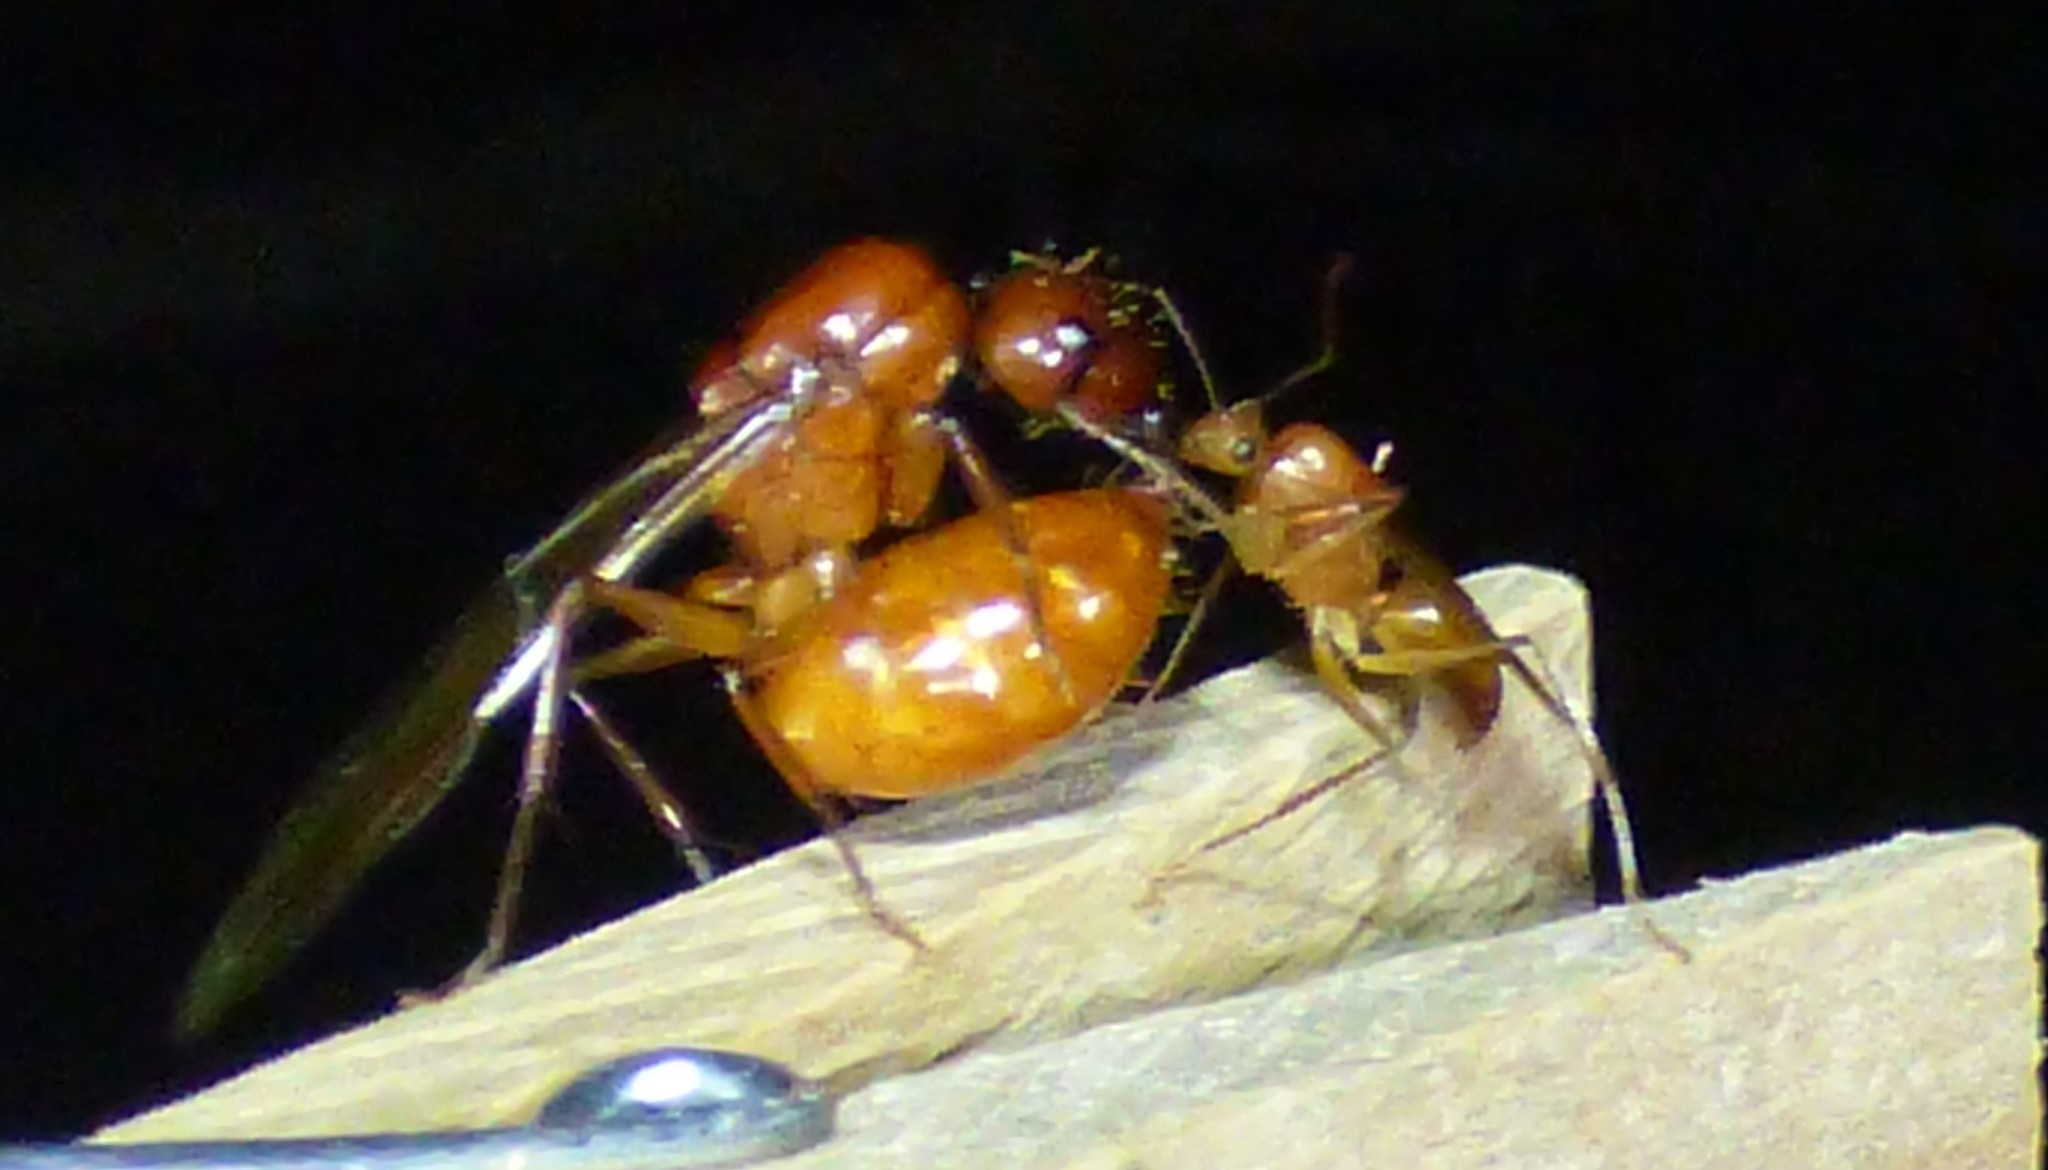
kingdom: Animalia
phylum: Arthropoda
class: Insecta
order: Hymenoptera
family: Formicidae
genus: Camponotus
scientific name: Camponotus castaneus
